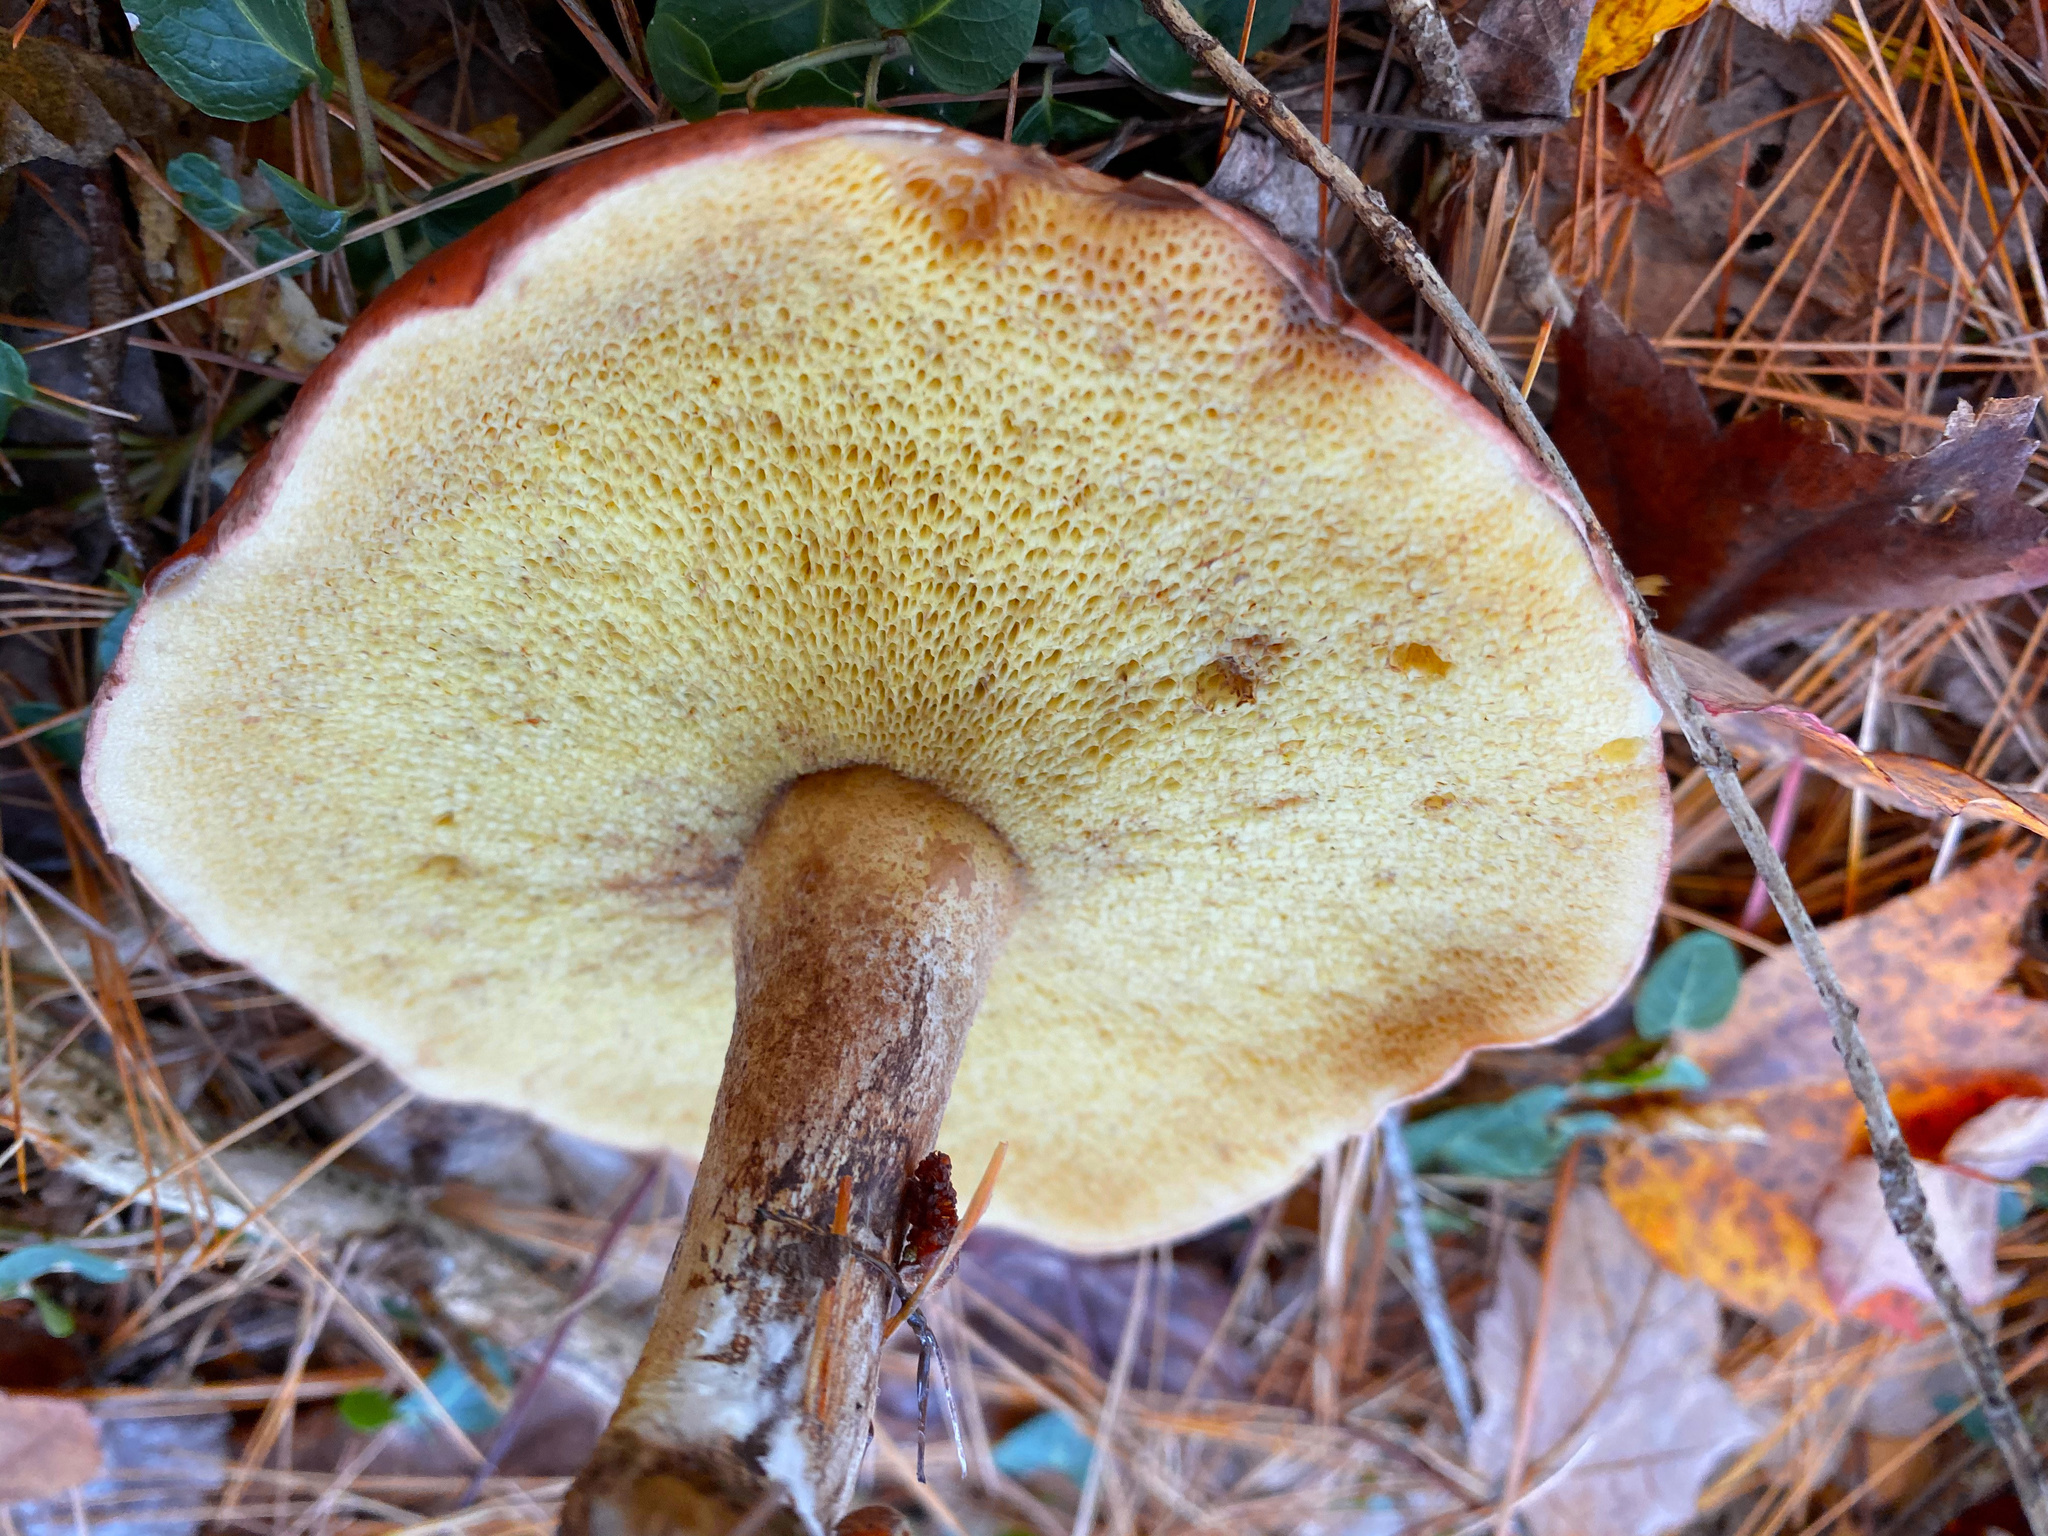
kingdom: Fungi
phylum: Basidiomycota
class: Agaricomycetes
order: Boletales
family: Suillaceae
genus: Suillus
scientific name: Suillus granulatus
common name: Weeping bolete
